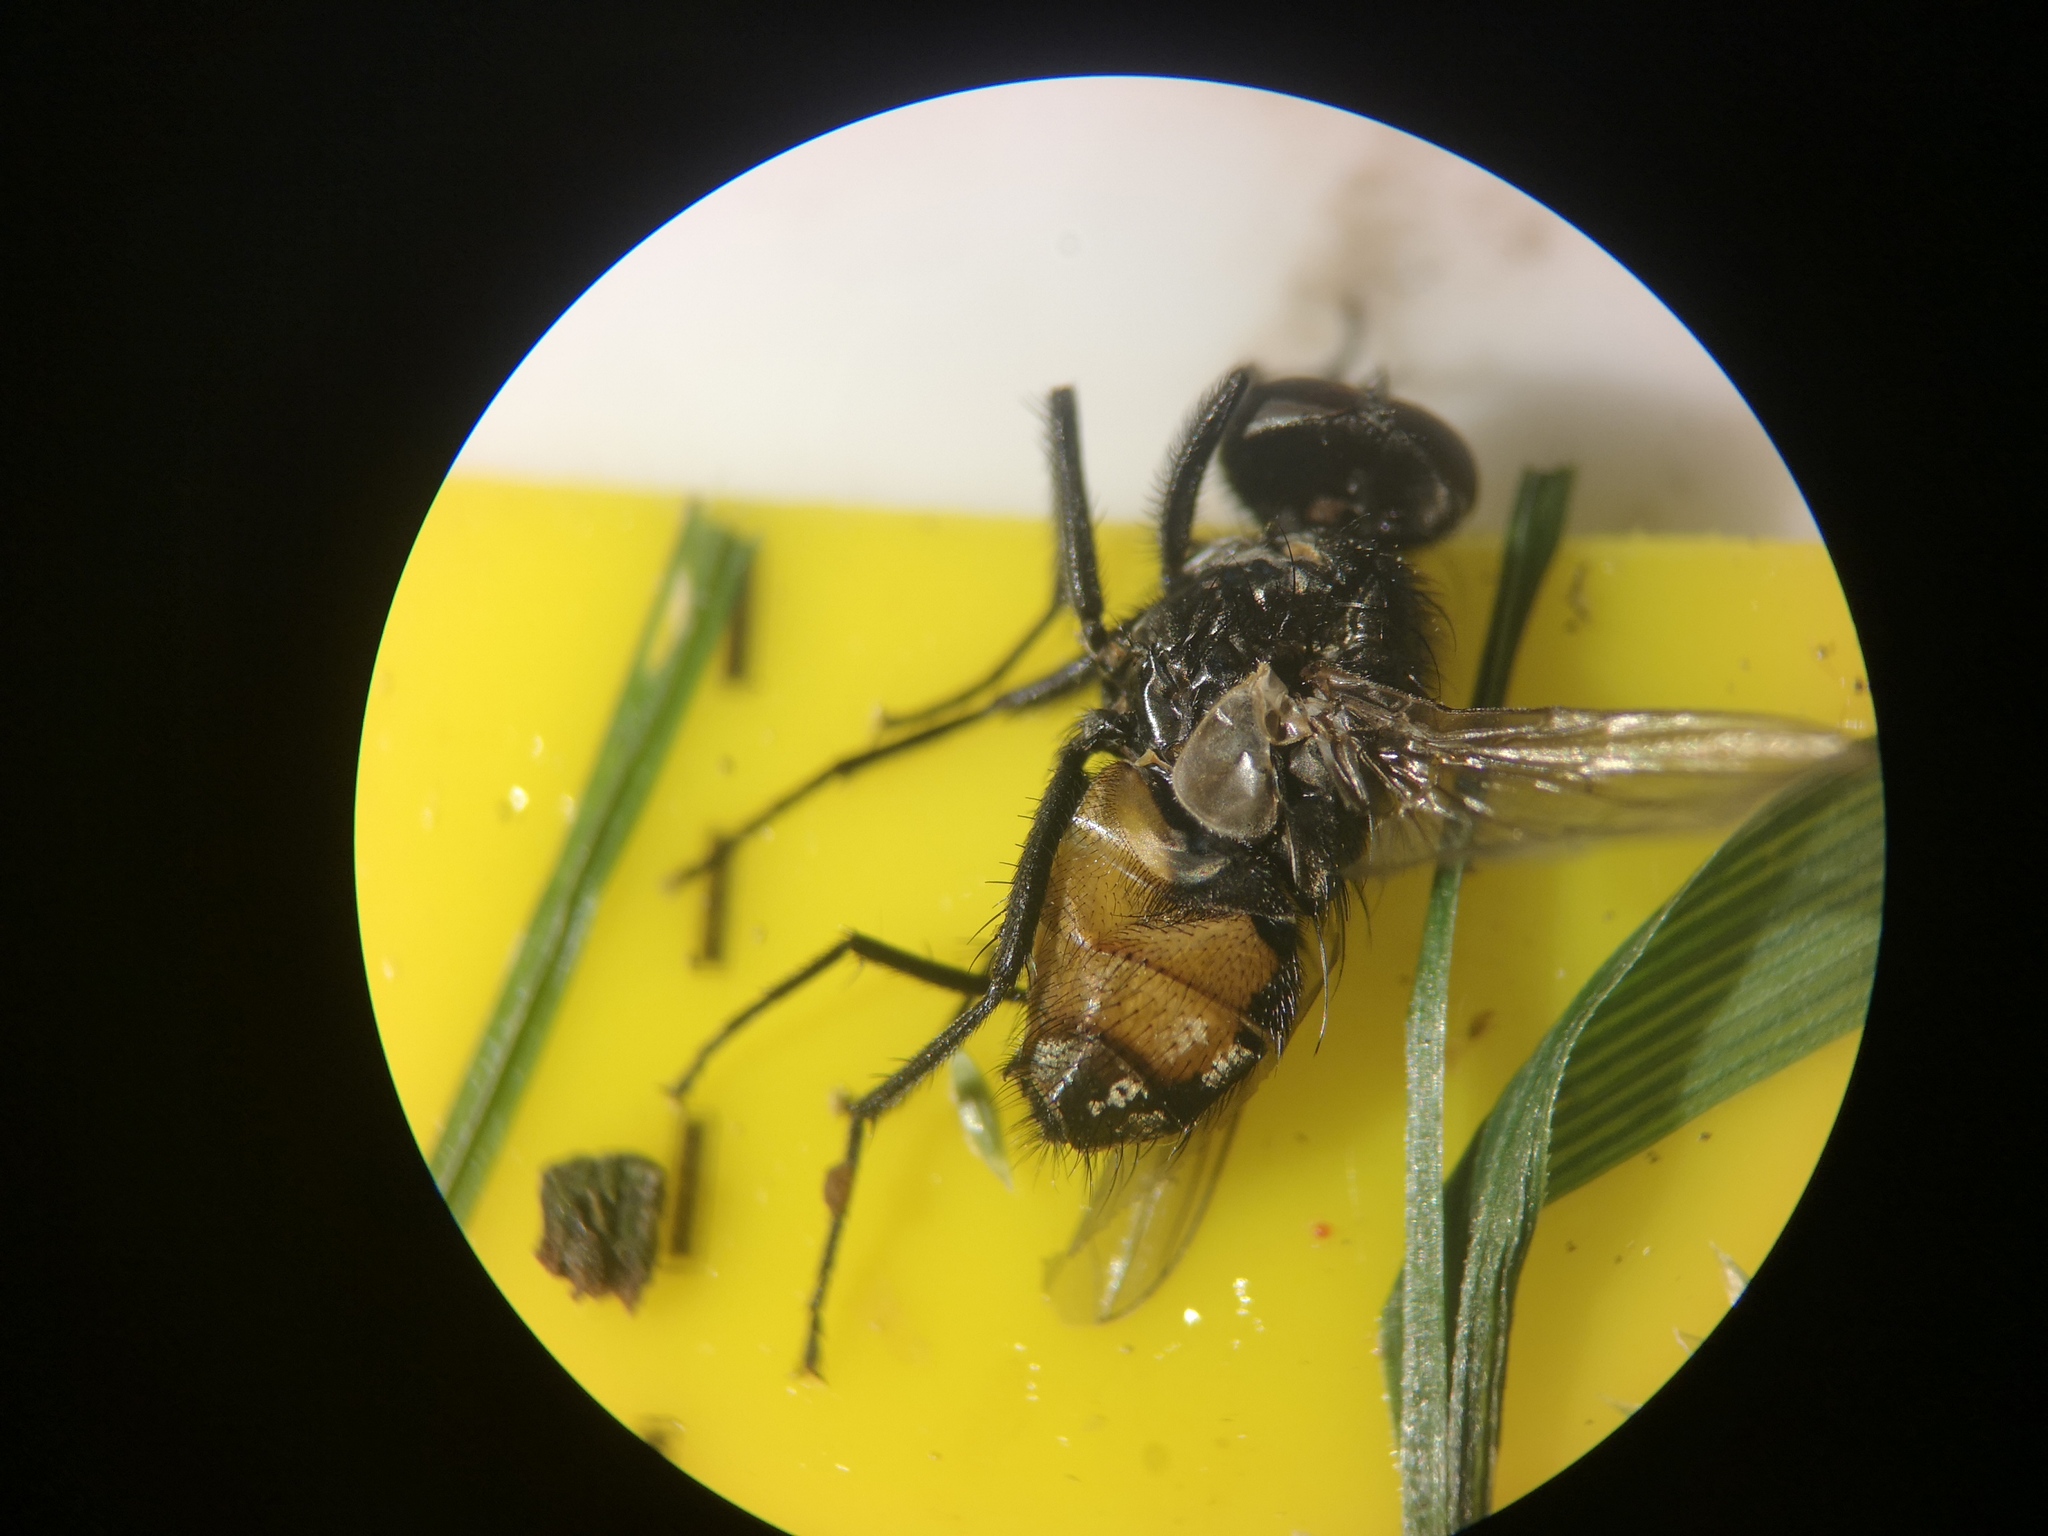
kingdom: Animalia
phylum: Arthropoda
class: Insecta
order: Diptera
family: Muscidae
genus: Musca
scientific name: Musca autumnalis
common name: Face fly
